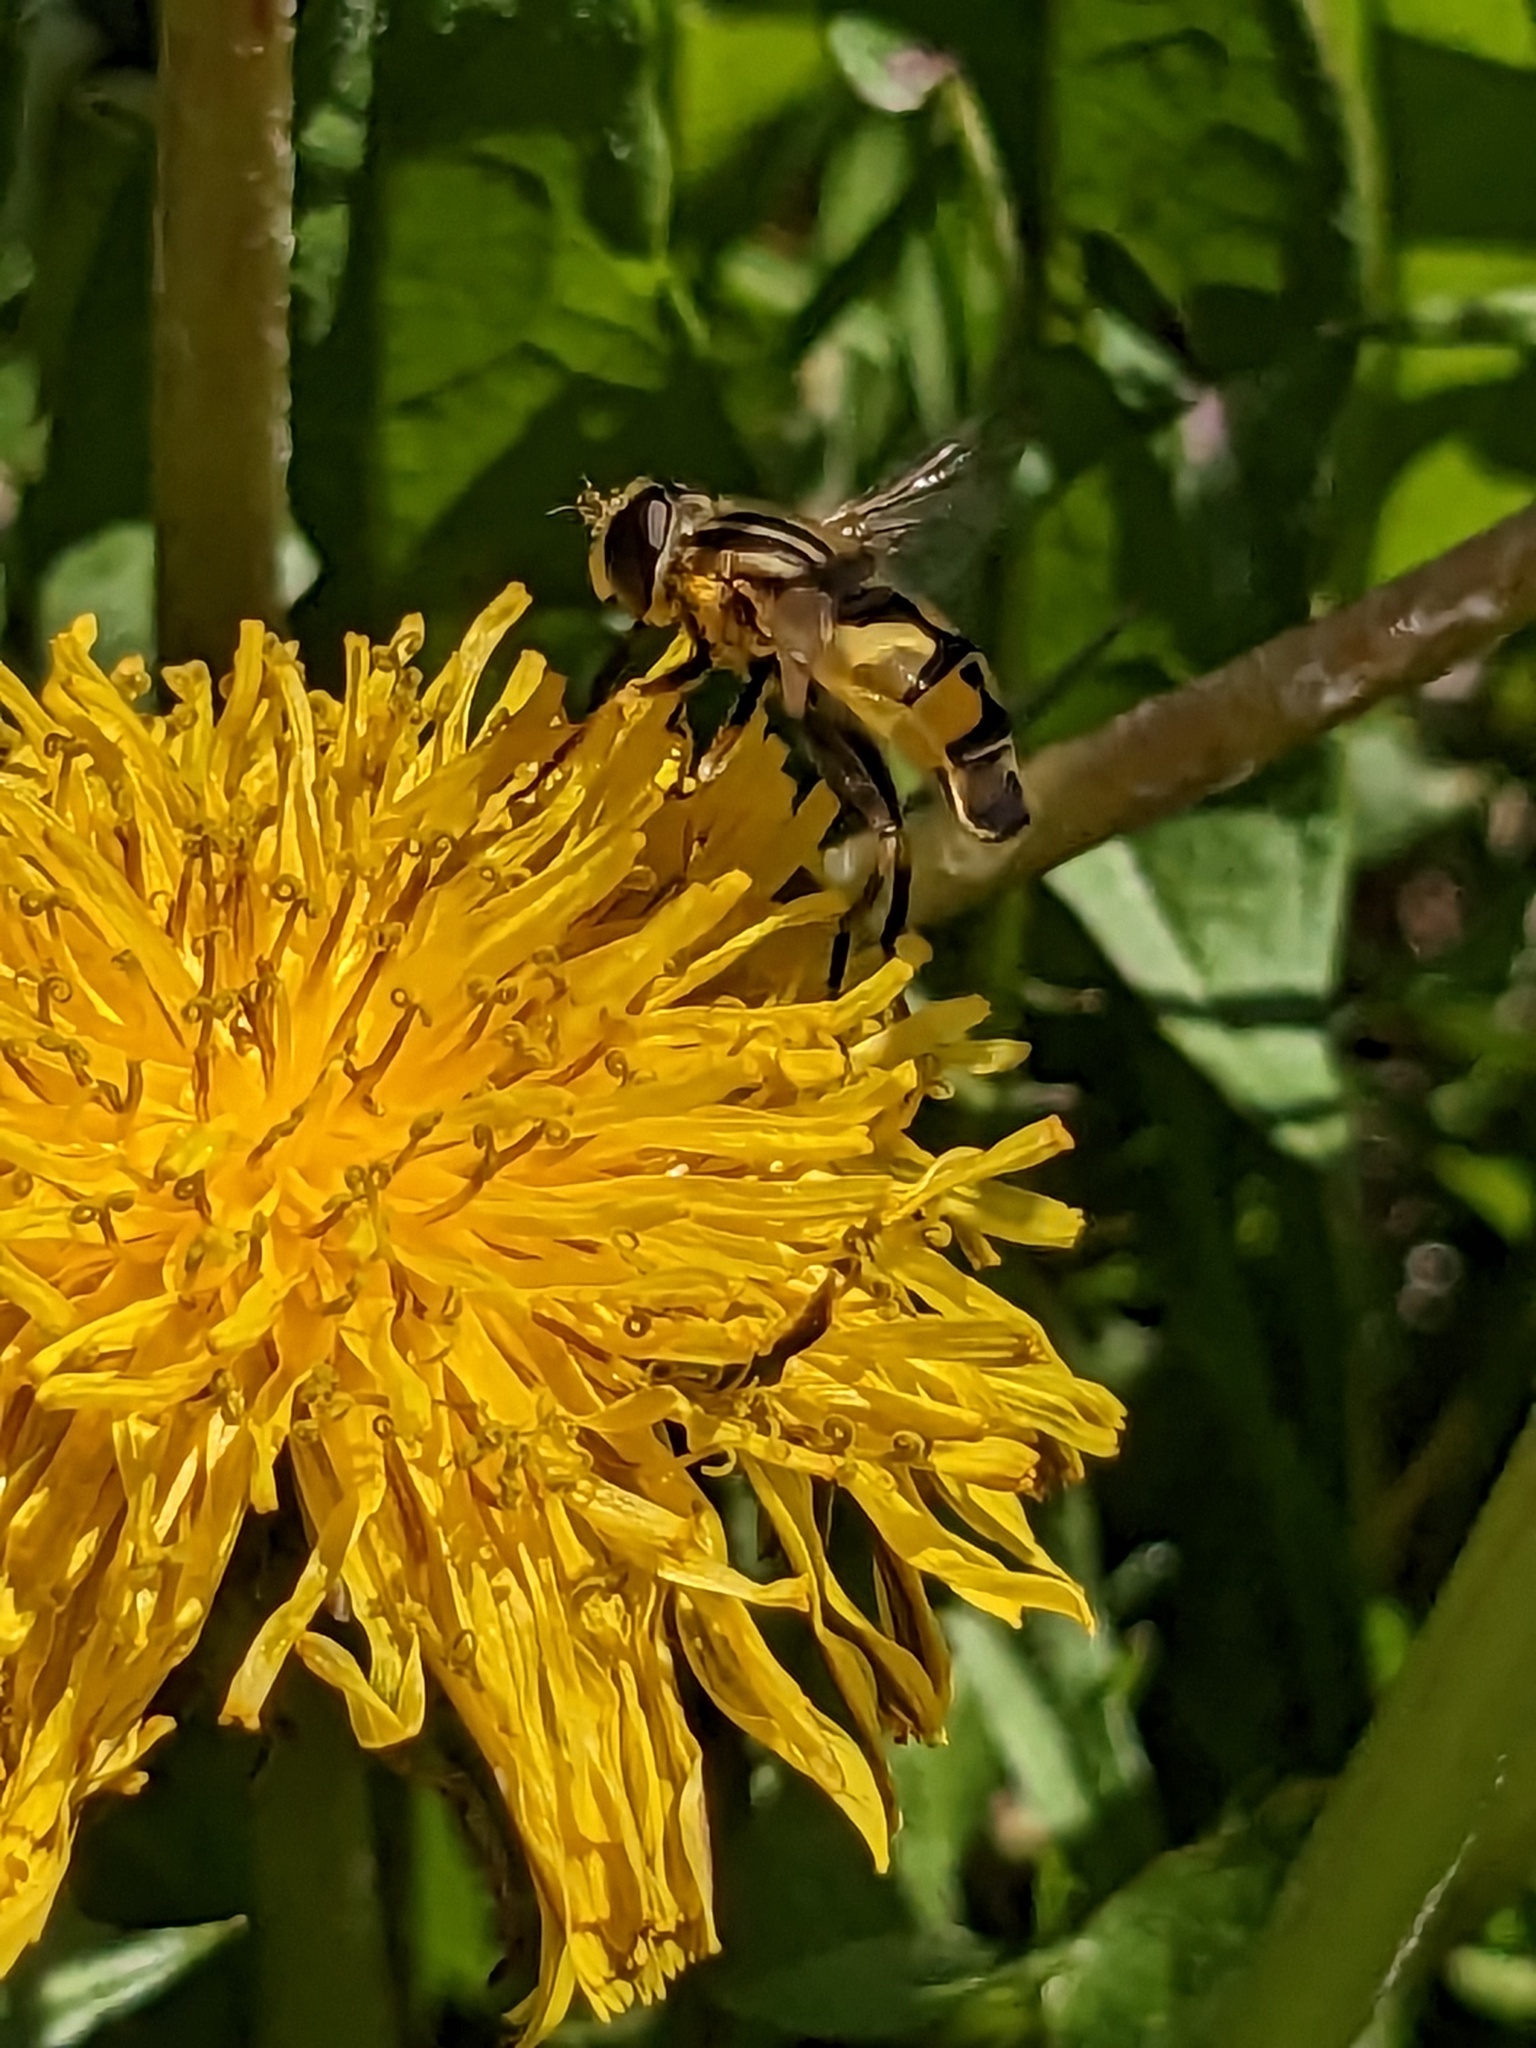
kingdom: Animalia
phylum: Arthropoda
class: Insecta
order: Diptera
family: Syrphidae
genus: Helophilus
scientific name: Helophilus latifrons
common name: Broad-headed marsh fly
